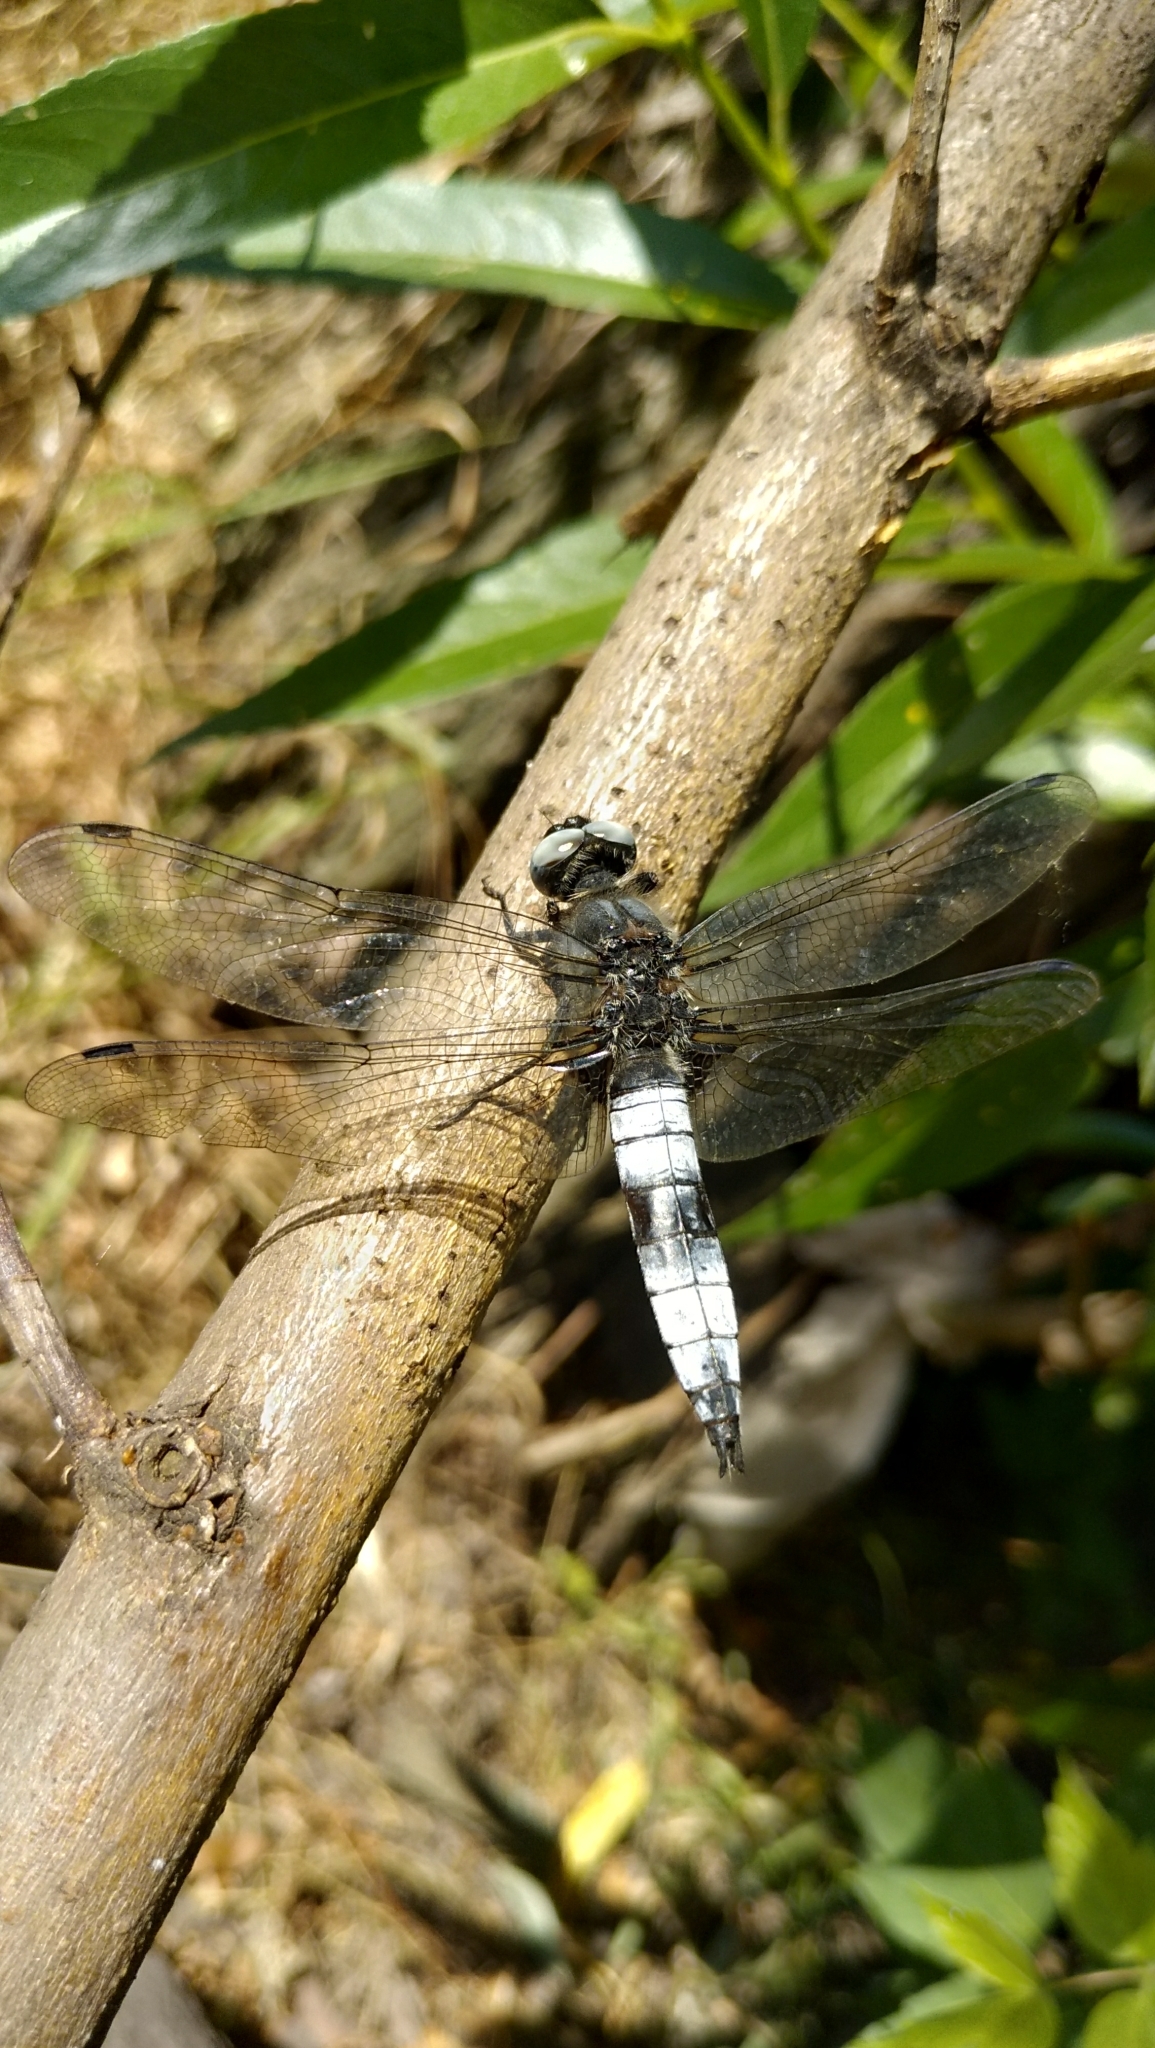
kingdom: Animalia
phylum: Arthropoda
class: Insecta
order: Odonata
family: Libellulidae
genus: Libellula
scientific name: Libellula fulva
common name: Blue chaser
